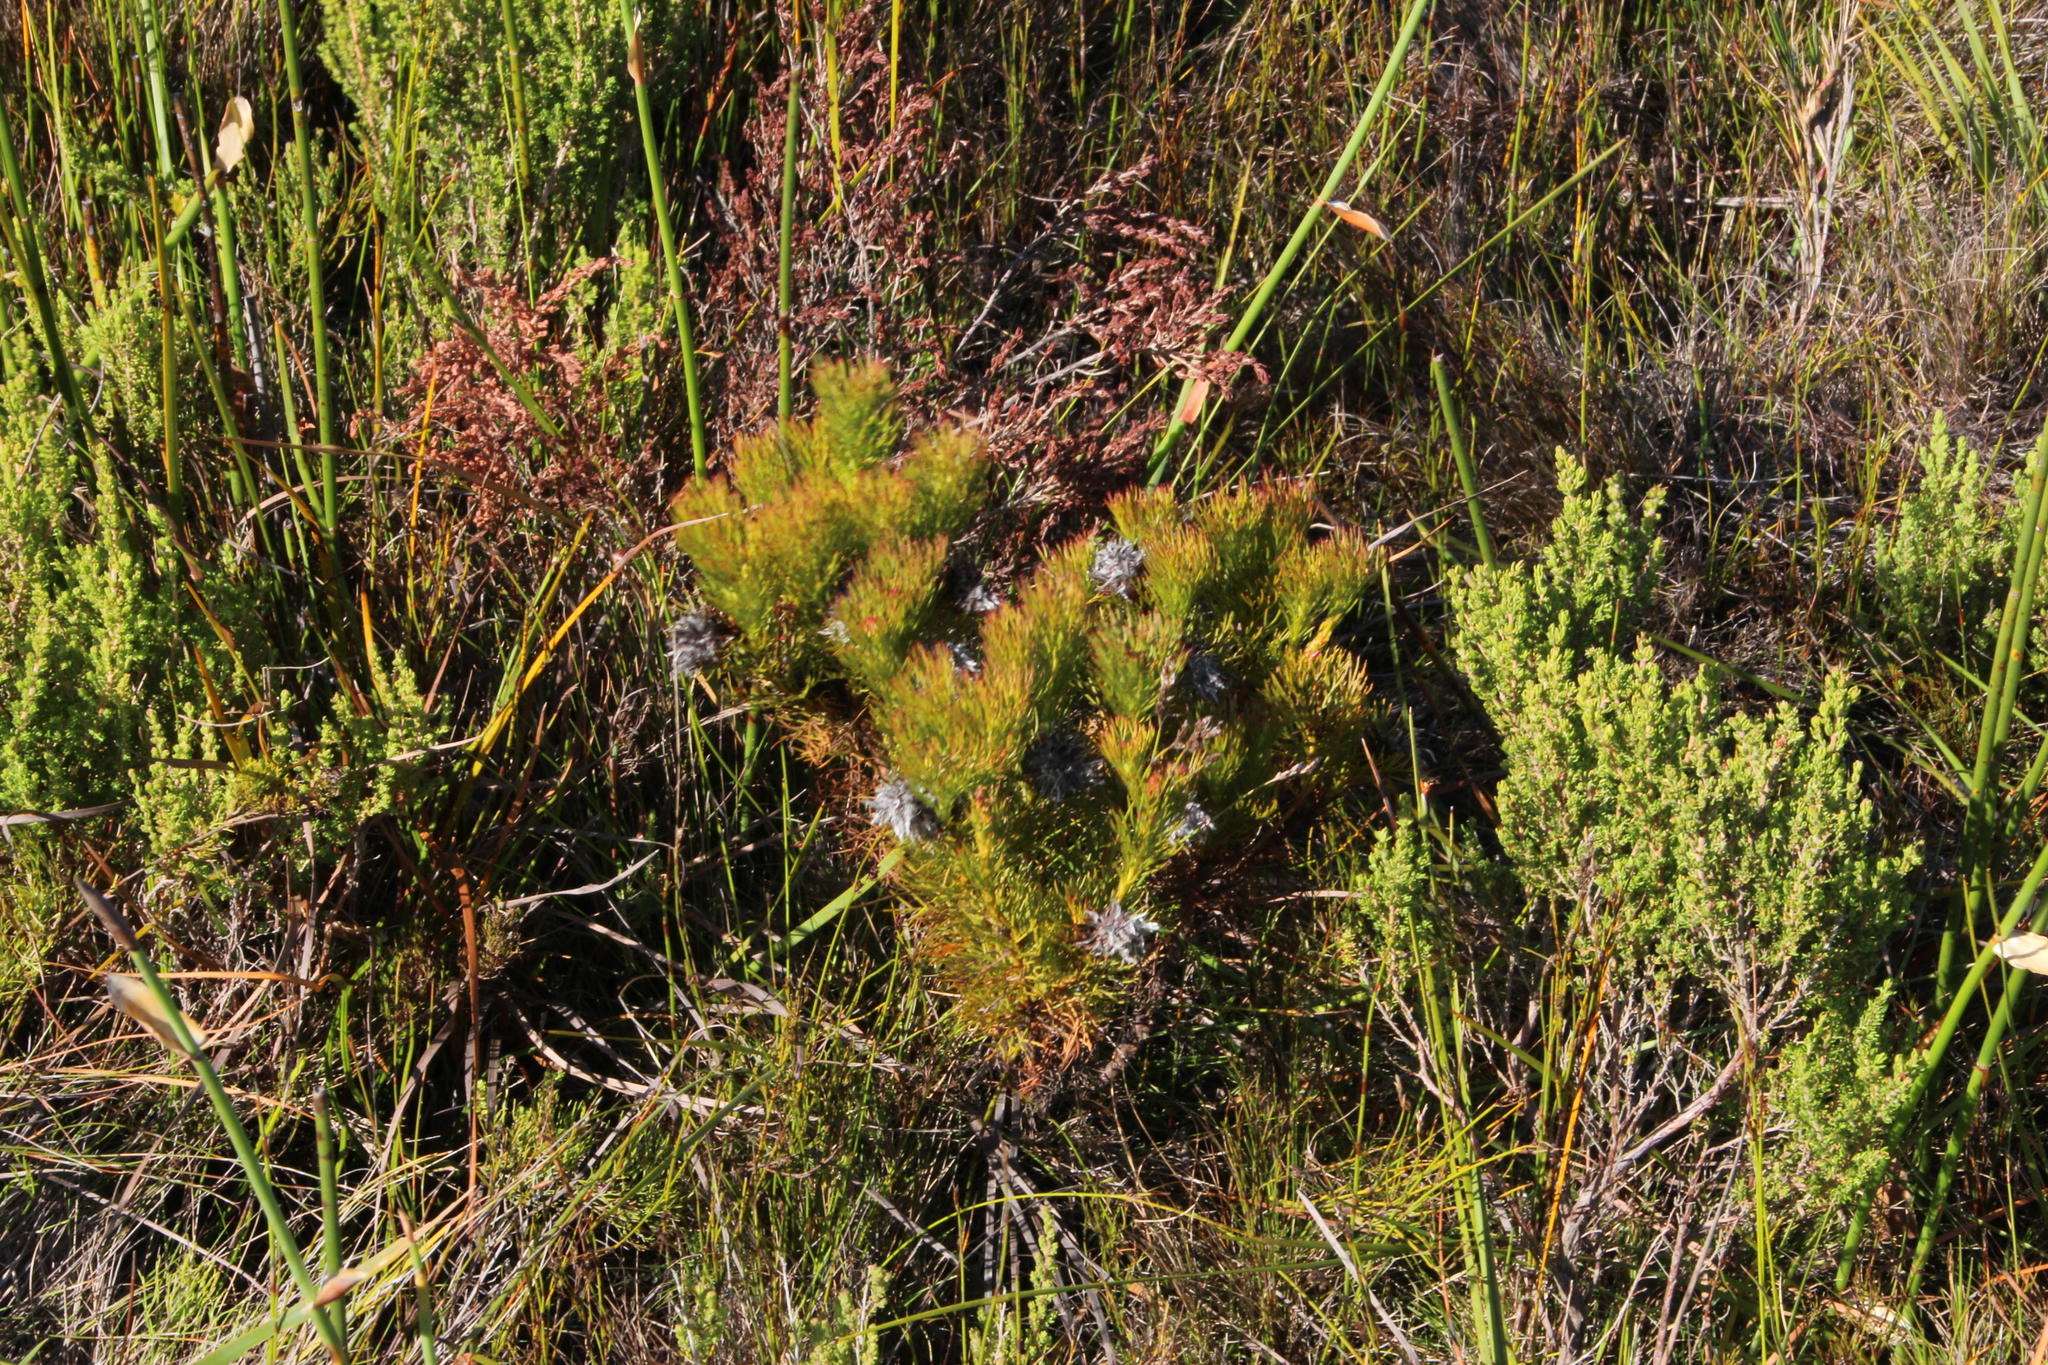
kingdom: Plantae
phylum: Tracheophyta
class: Magnoliopsida
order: Proteales
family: Proteaceae
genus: Serruria
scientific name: Serruria rostellaris
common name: Remote spiderhead
